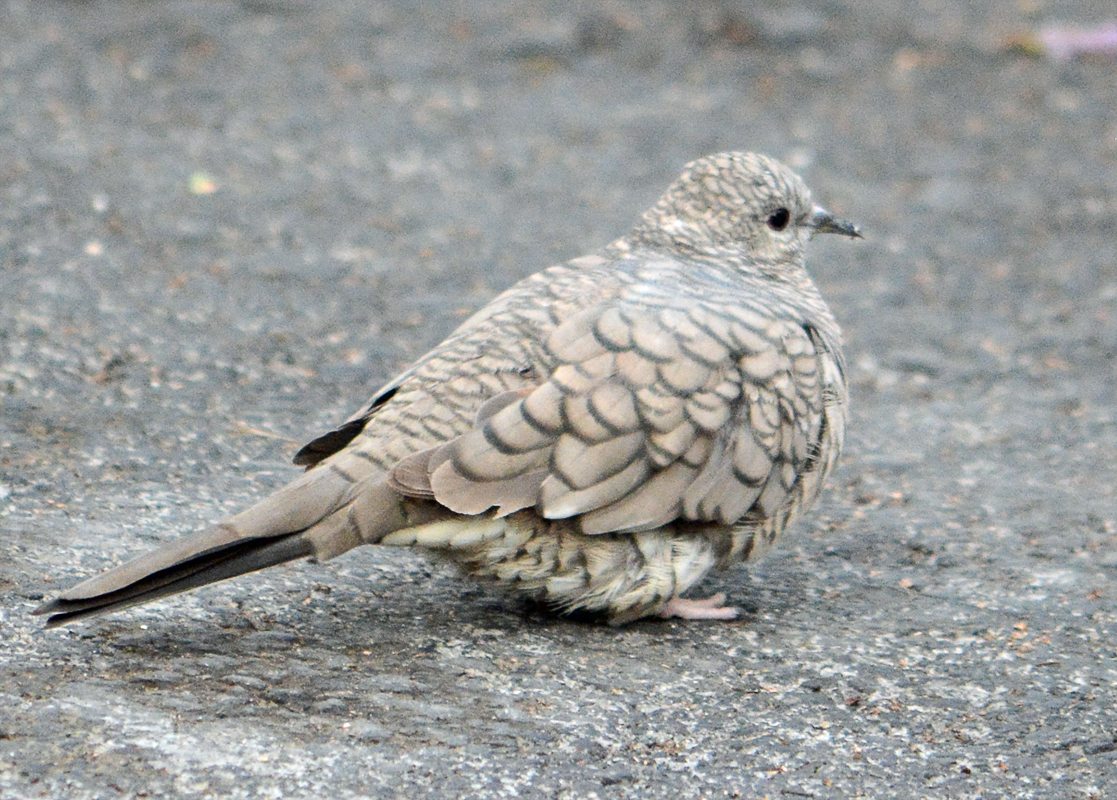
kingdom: Animalia
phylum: Chordata
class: Aves
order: Columbiformes
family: Columbidae
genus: Columbina
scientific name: Columbina inca
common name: Inca dove
